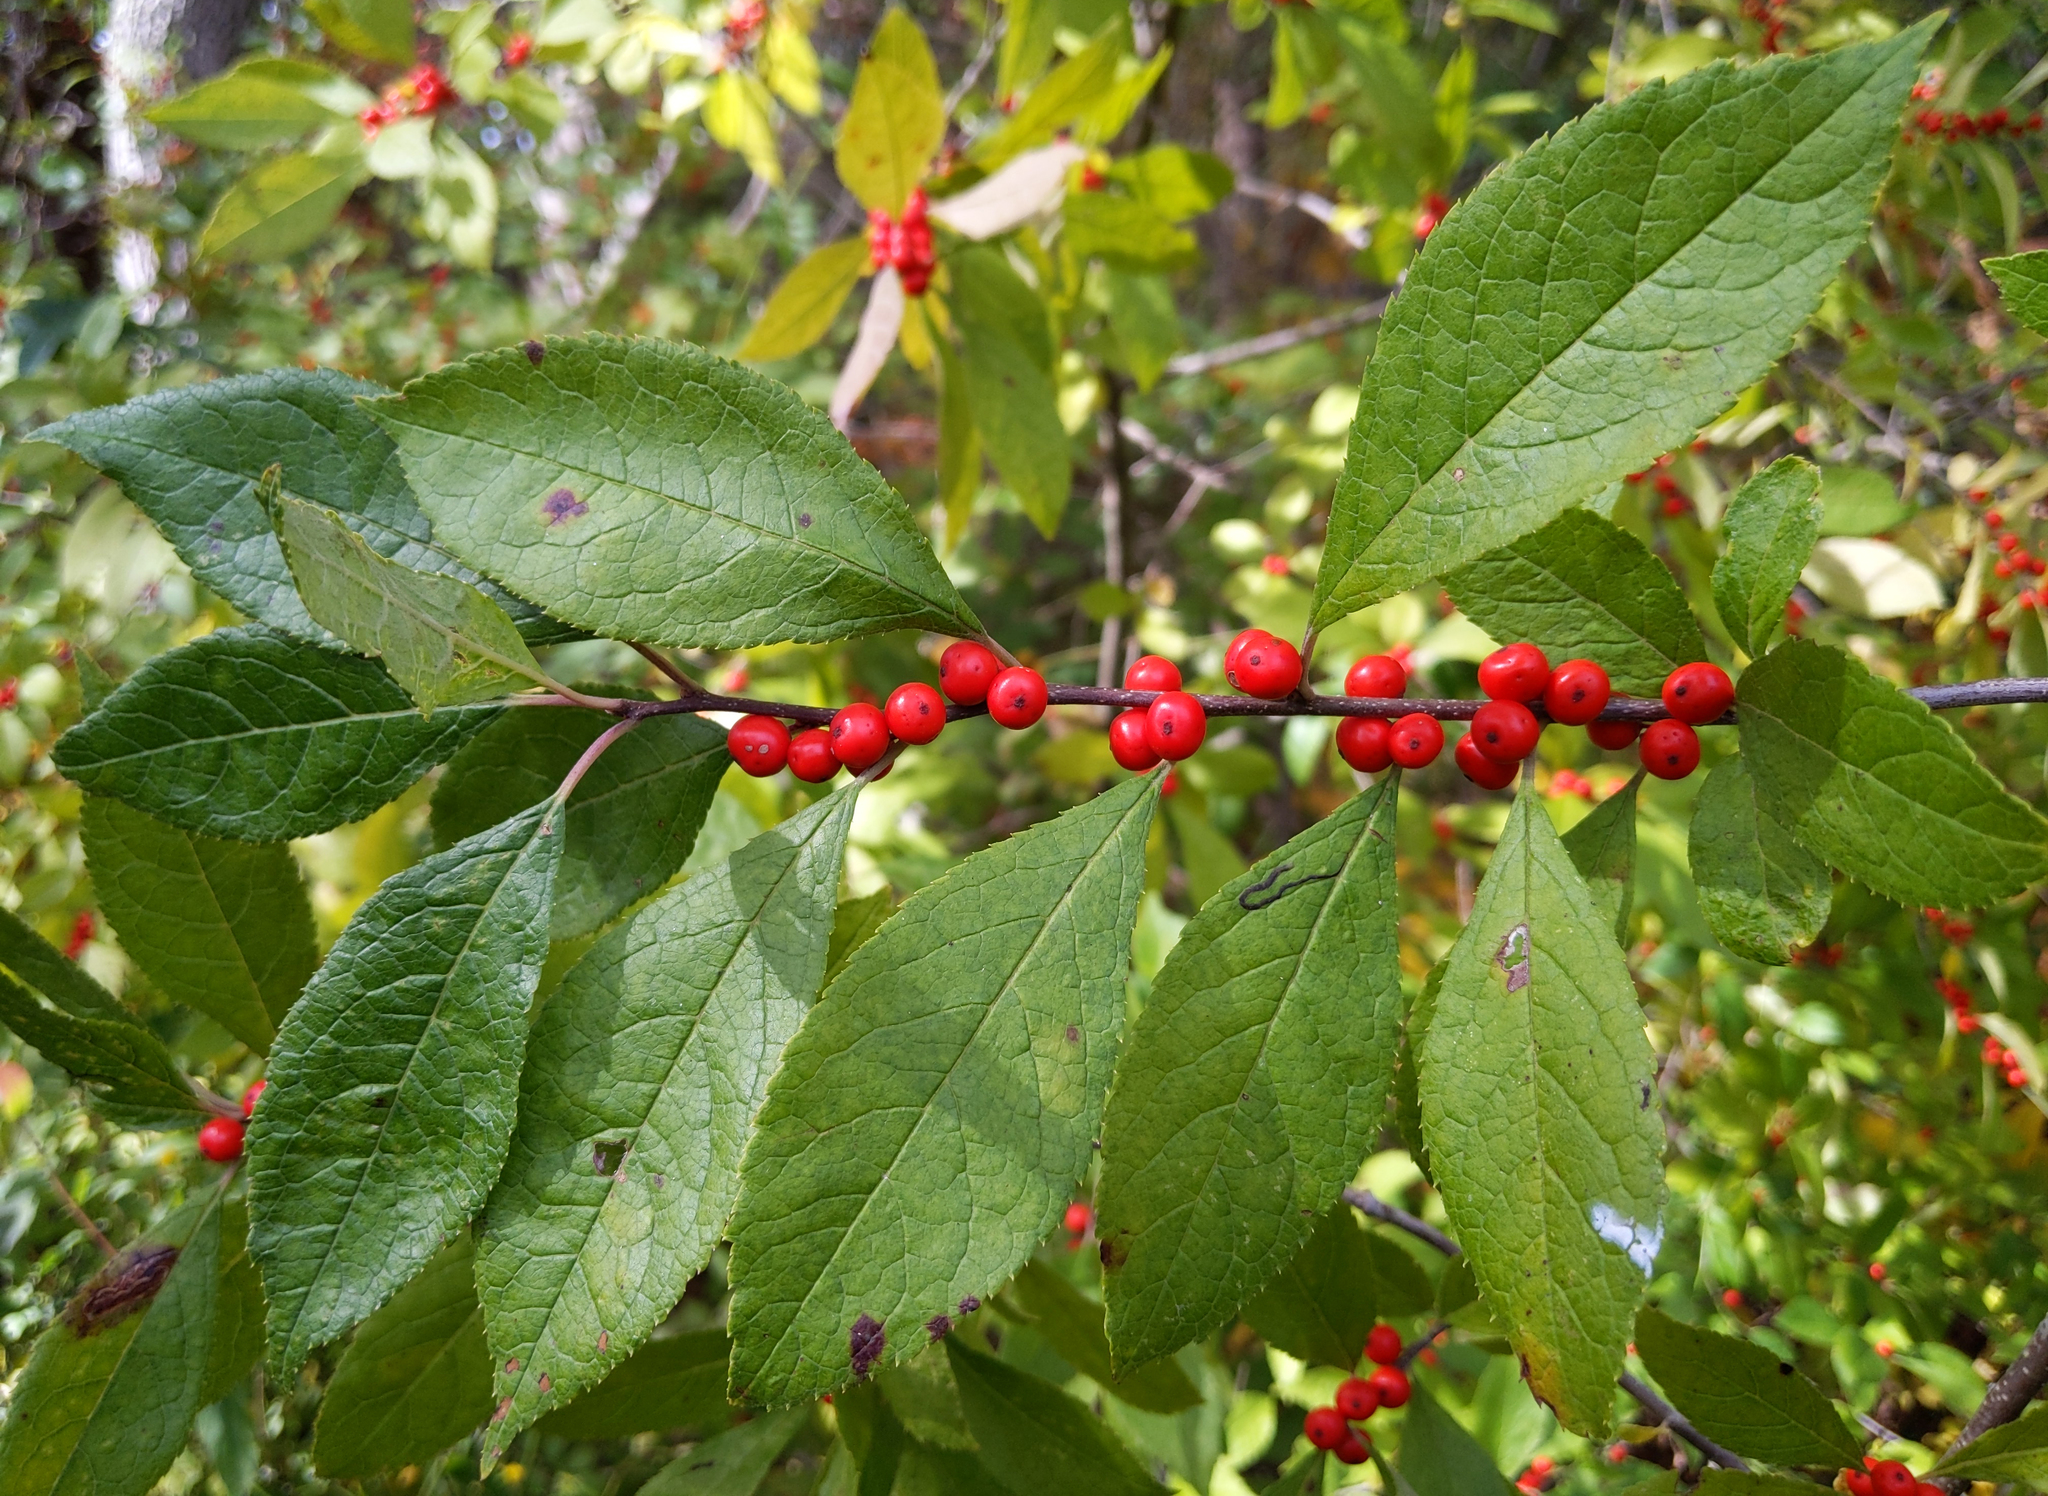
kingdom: Plantae
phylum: Tracheophyta
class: Magnoliopsida
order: Aquifoliales
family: Aquifoliaceae
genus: Ilex
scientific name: Ilex verticillata
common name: Virginia winterberry
